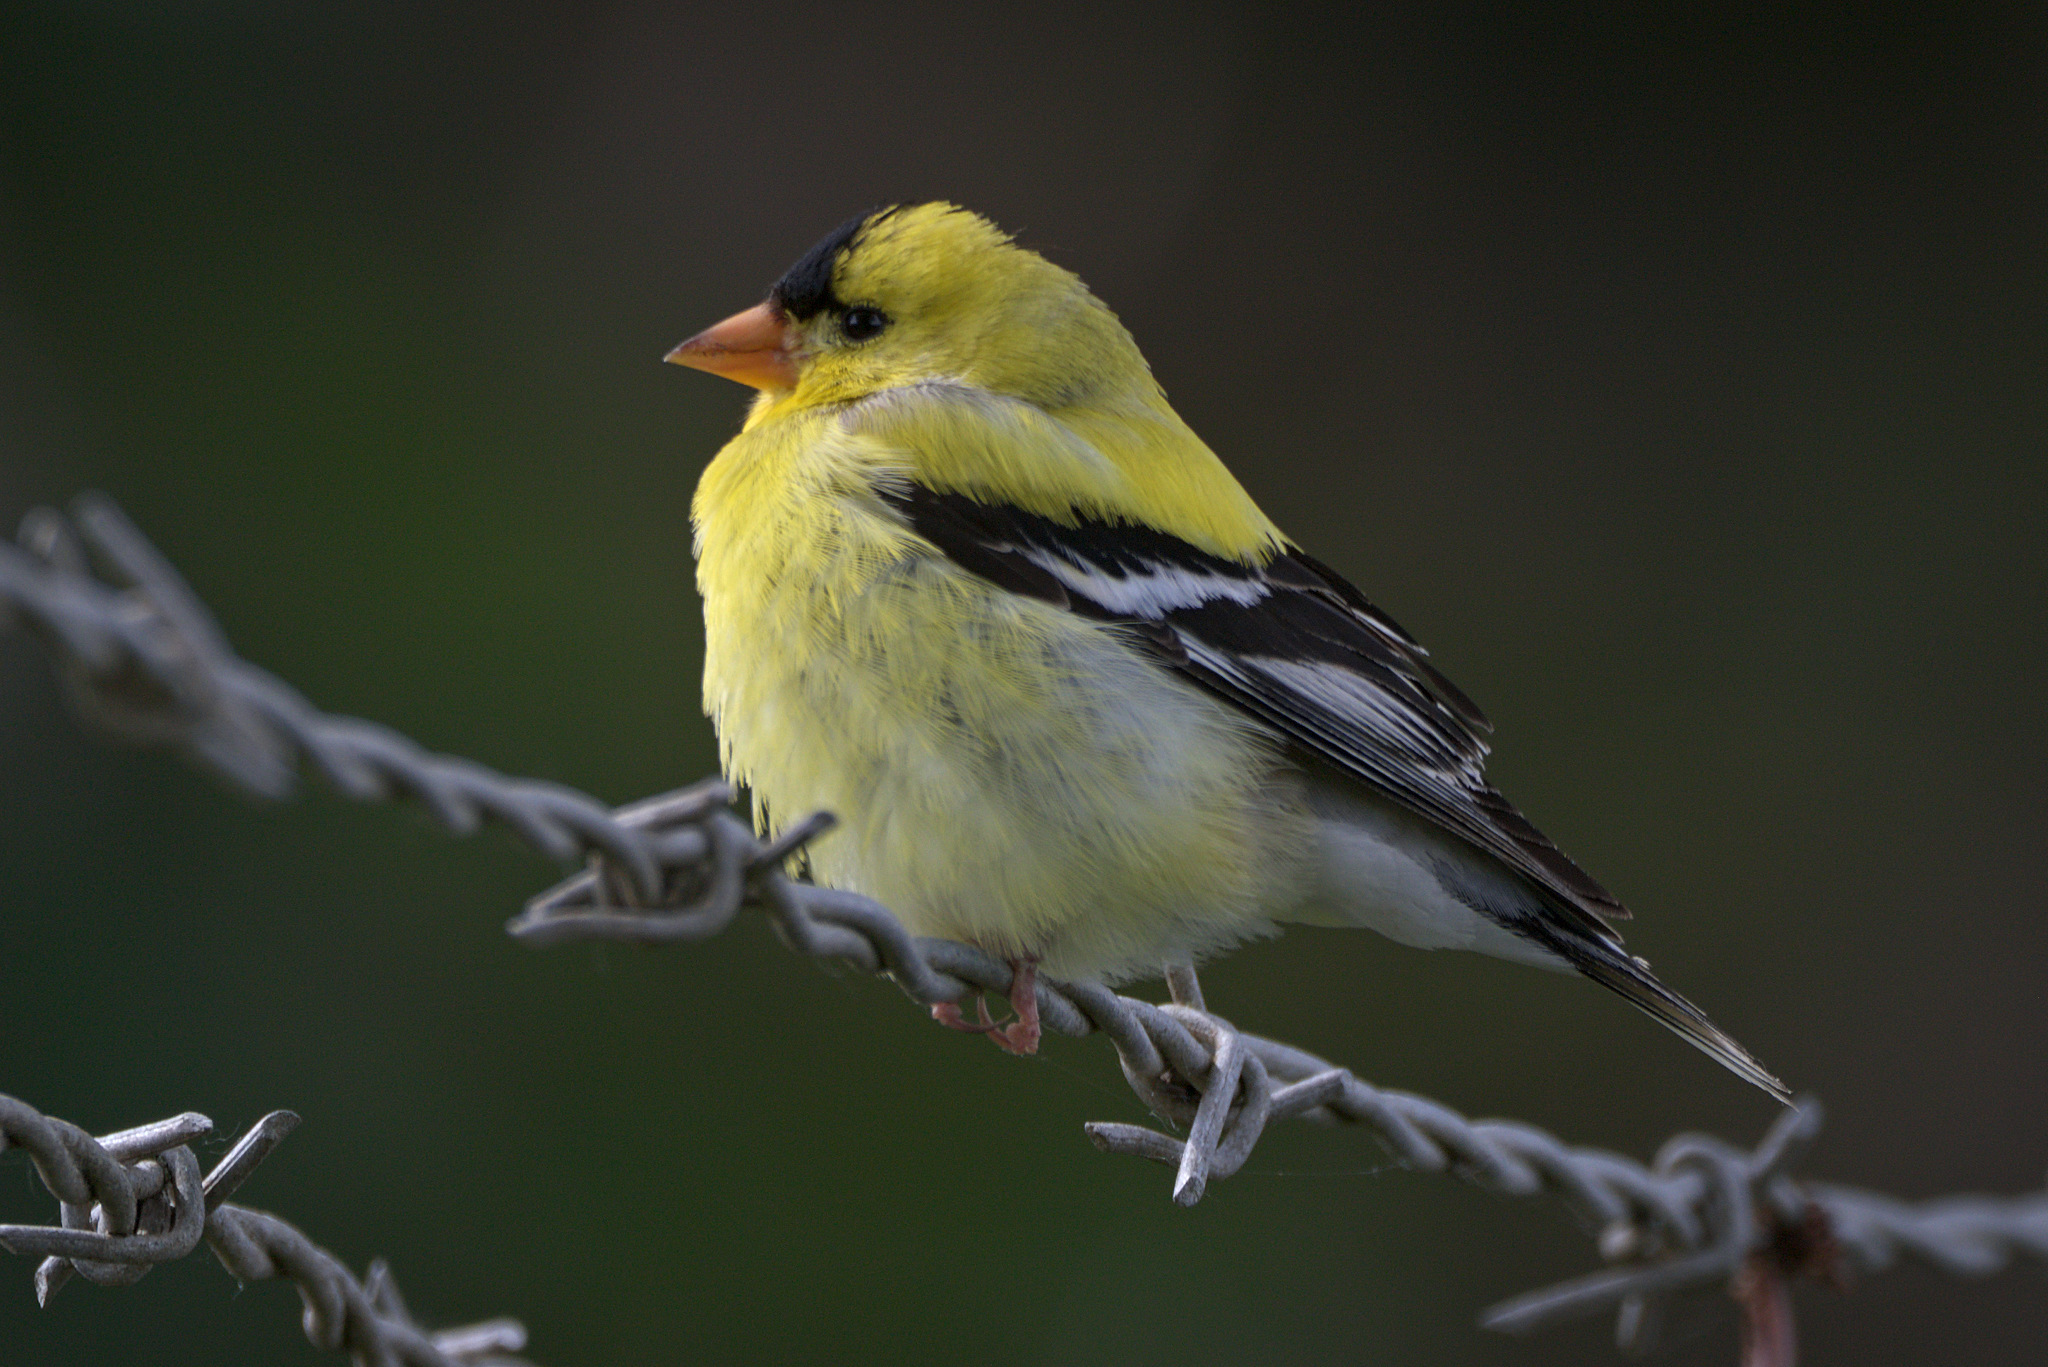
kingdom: Animalia
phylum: Chordata
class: Aves
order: Passeriformes
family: Fringillidae
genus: Spinus
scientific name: Spinus tristis
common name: American goldfinch
